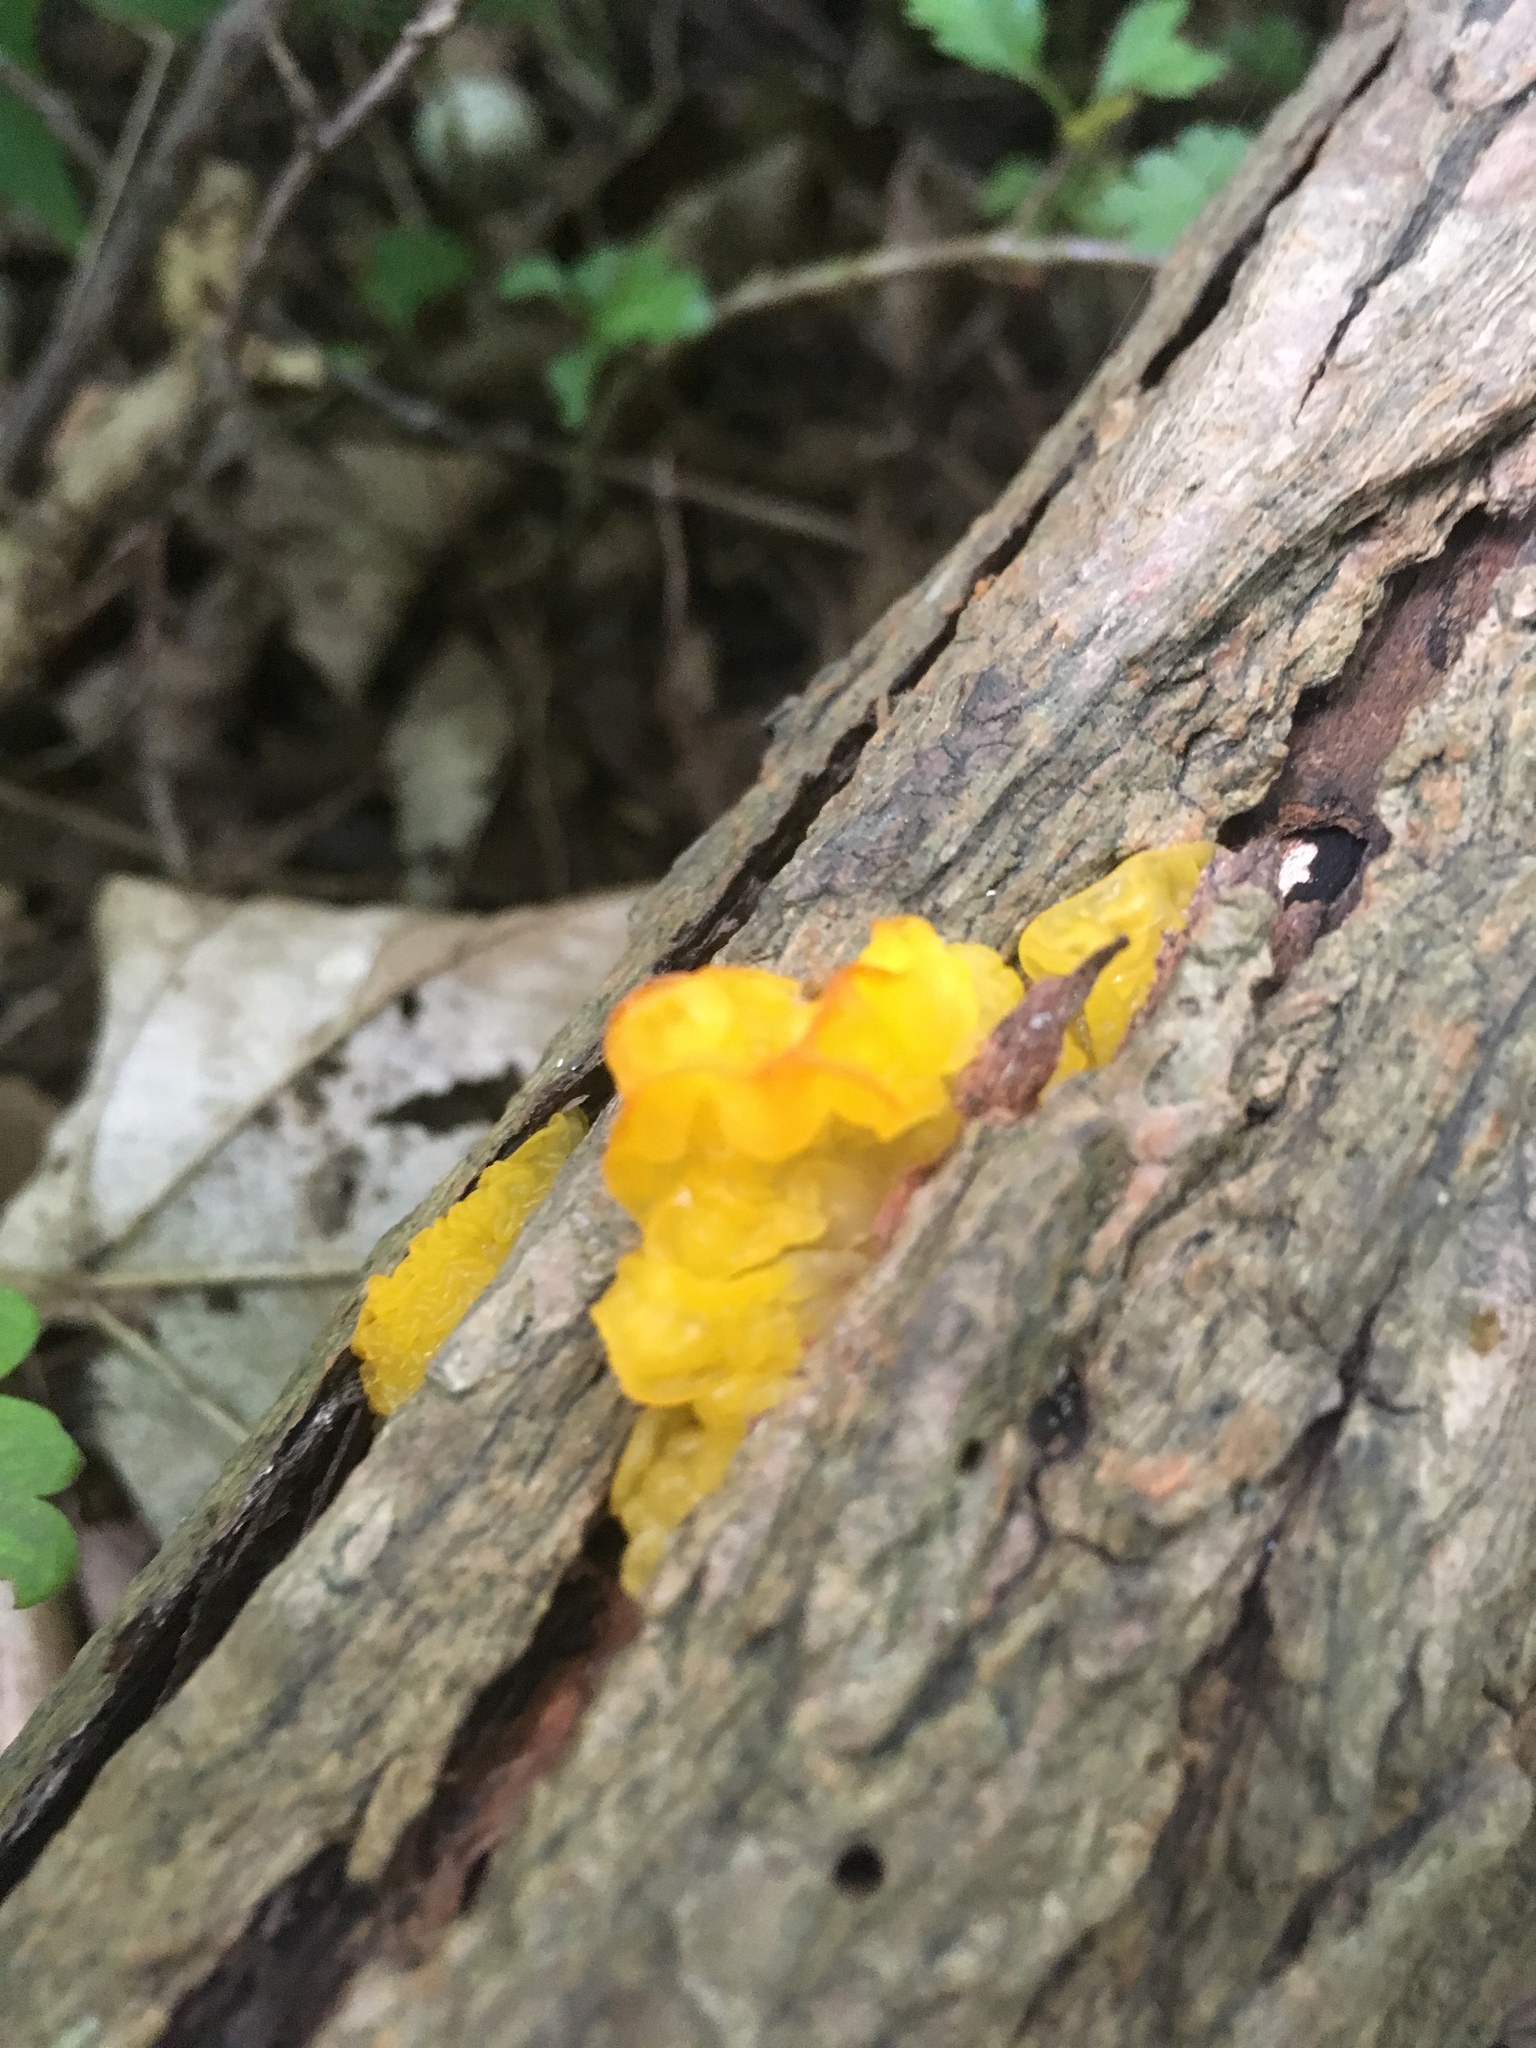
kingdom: Fungi
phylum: Basidiomycota
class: Tremellomycetes
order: Tremellales
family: Tremellaceae
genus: Tremella
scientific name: Tremella mesenterica
